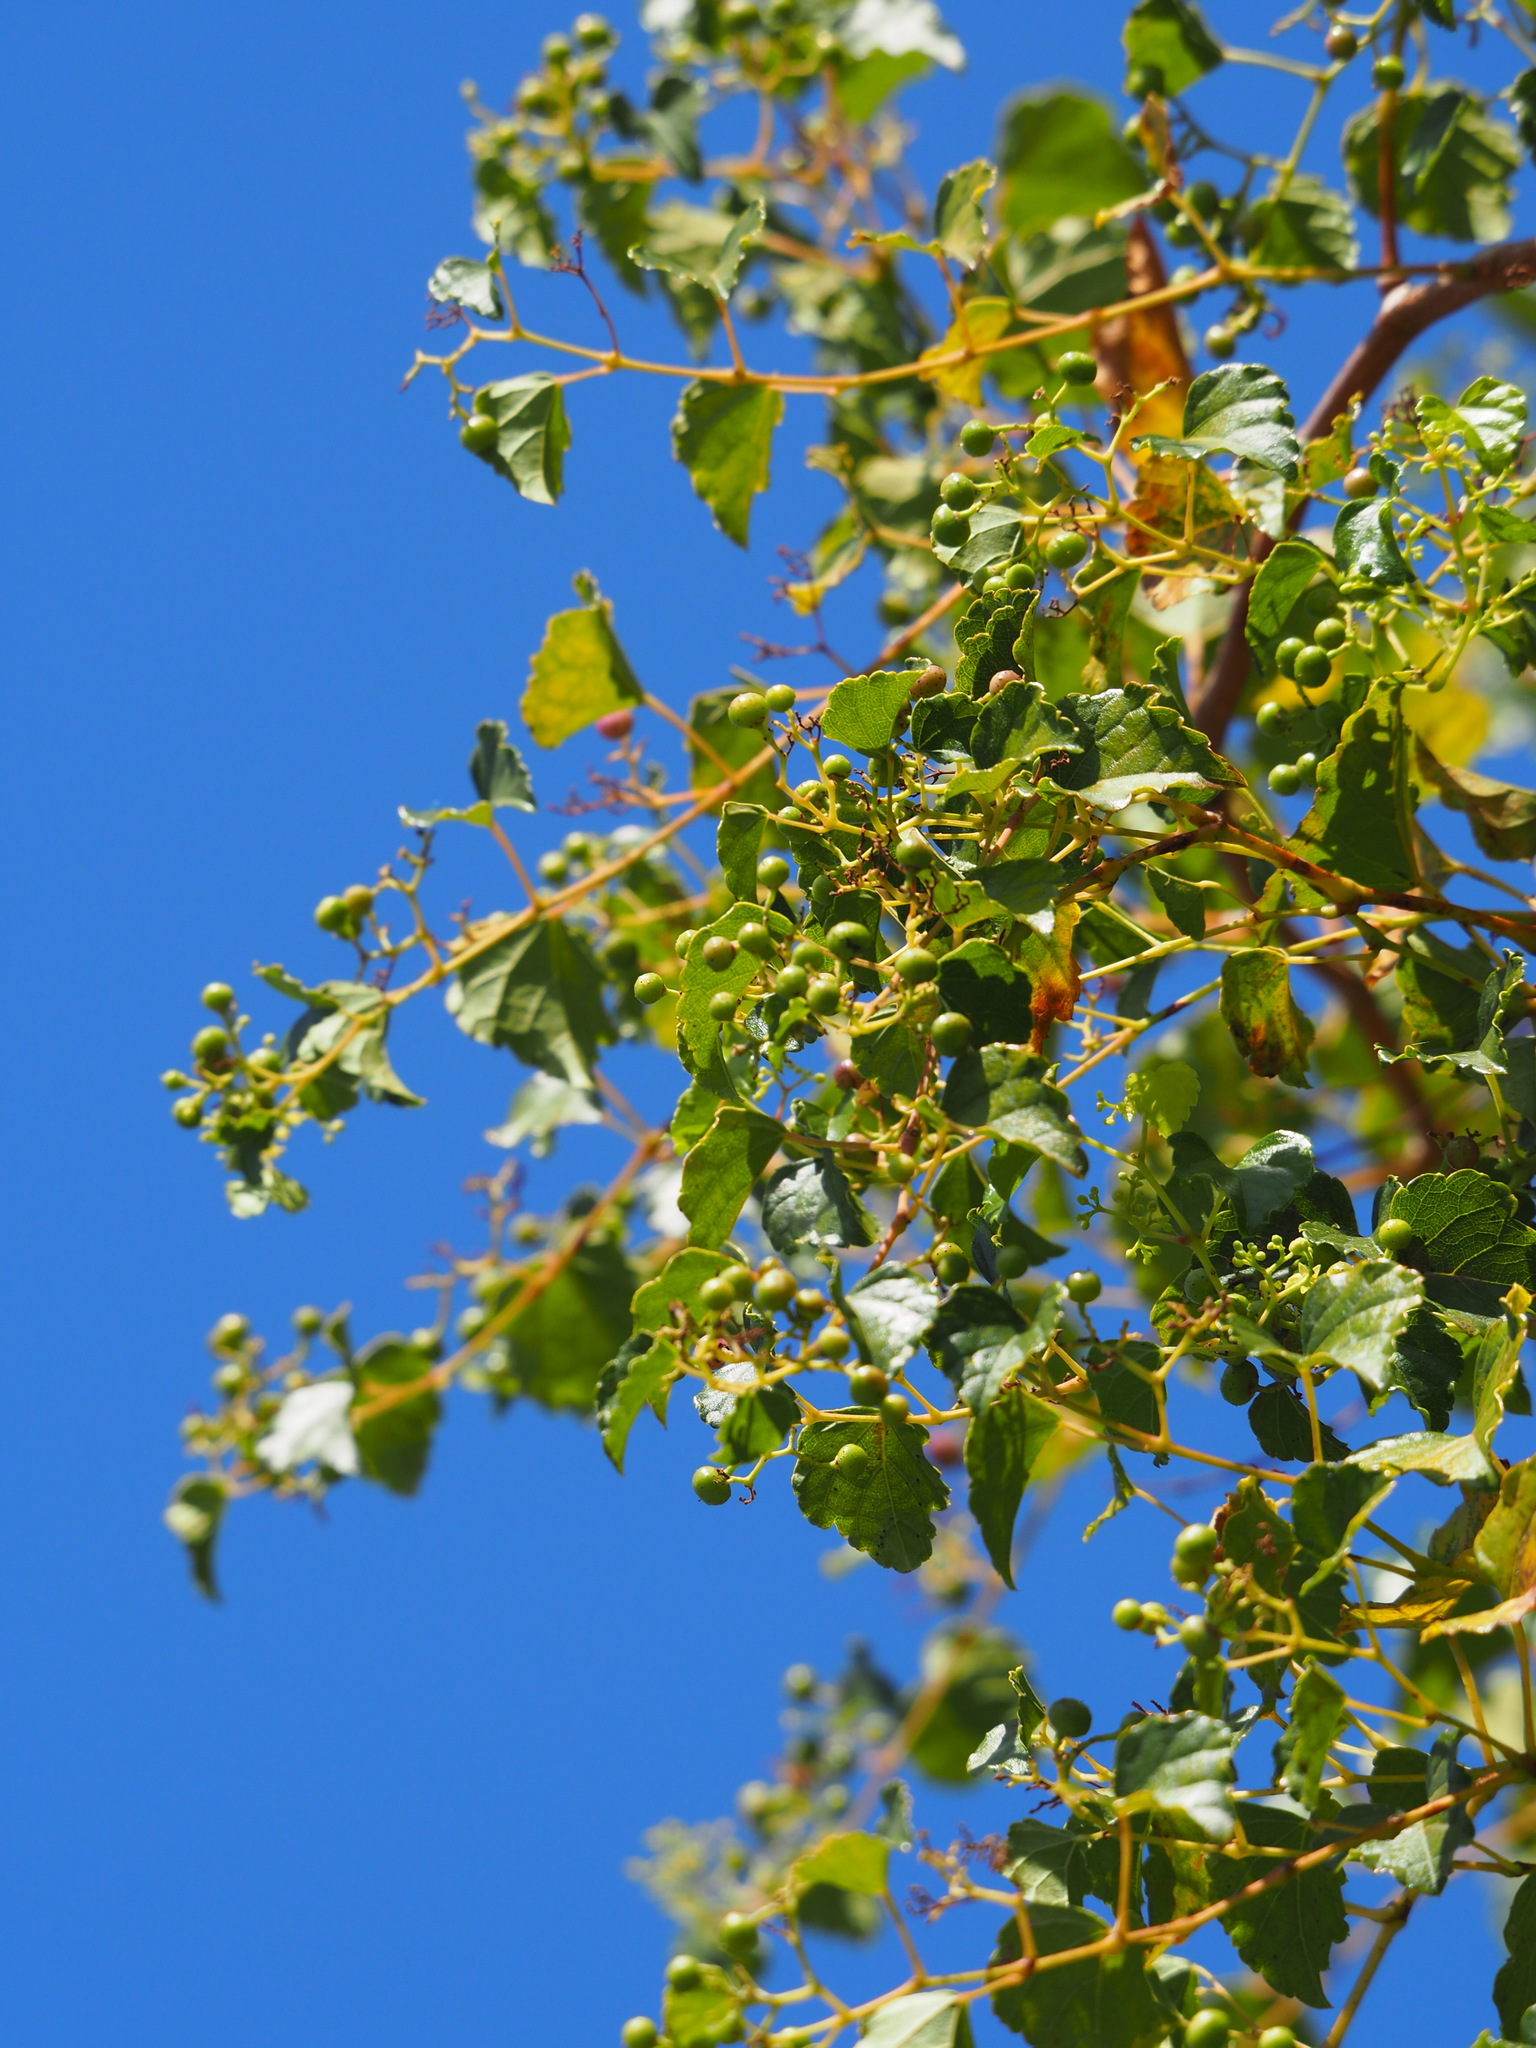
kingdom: Plantae
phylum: Tracheophyta
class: Magnoliopsida
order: Vitales
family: Vitaceae
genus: Ampelopsis
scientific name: Ampelopsis glandulosa
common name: Amur peppervine
